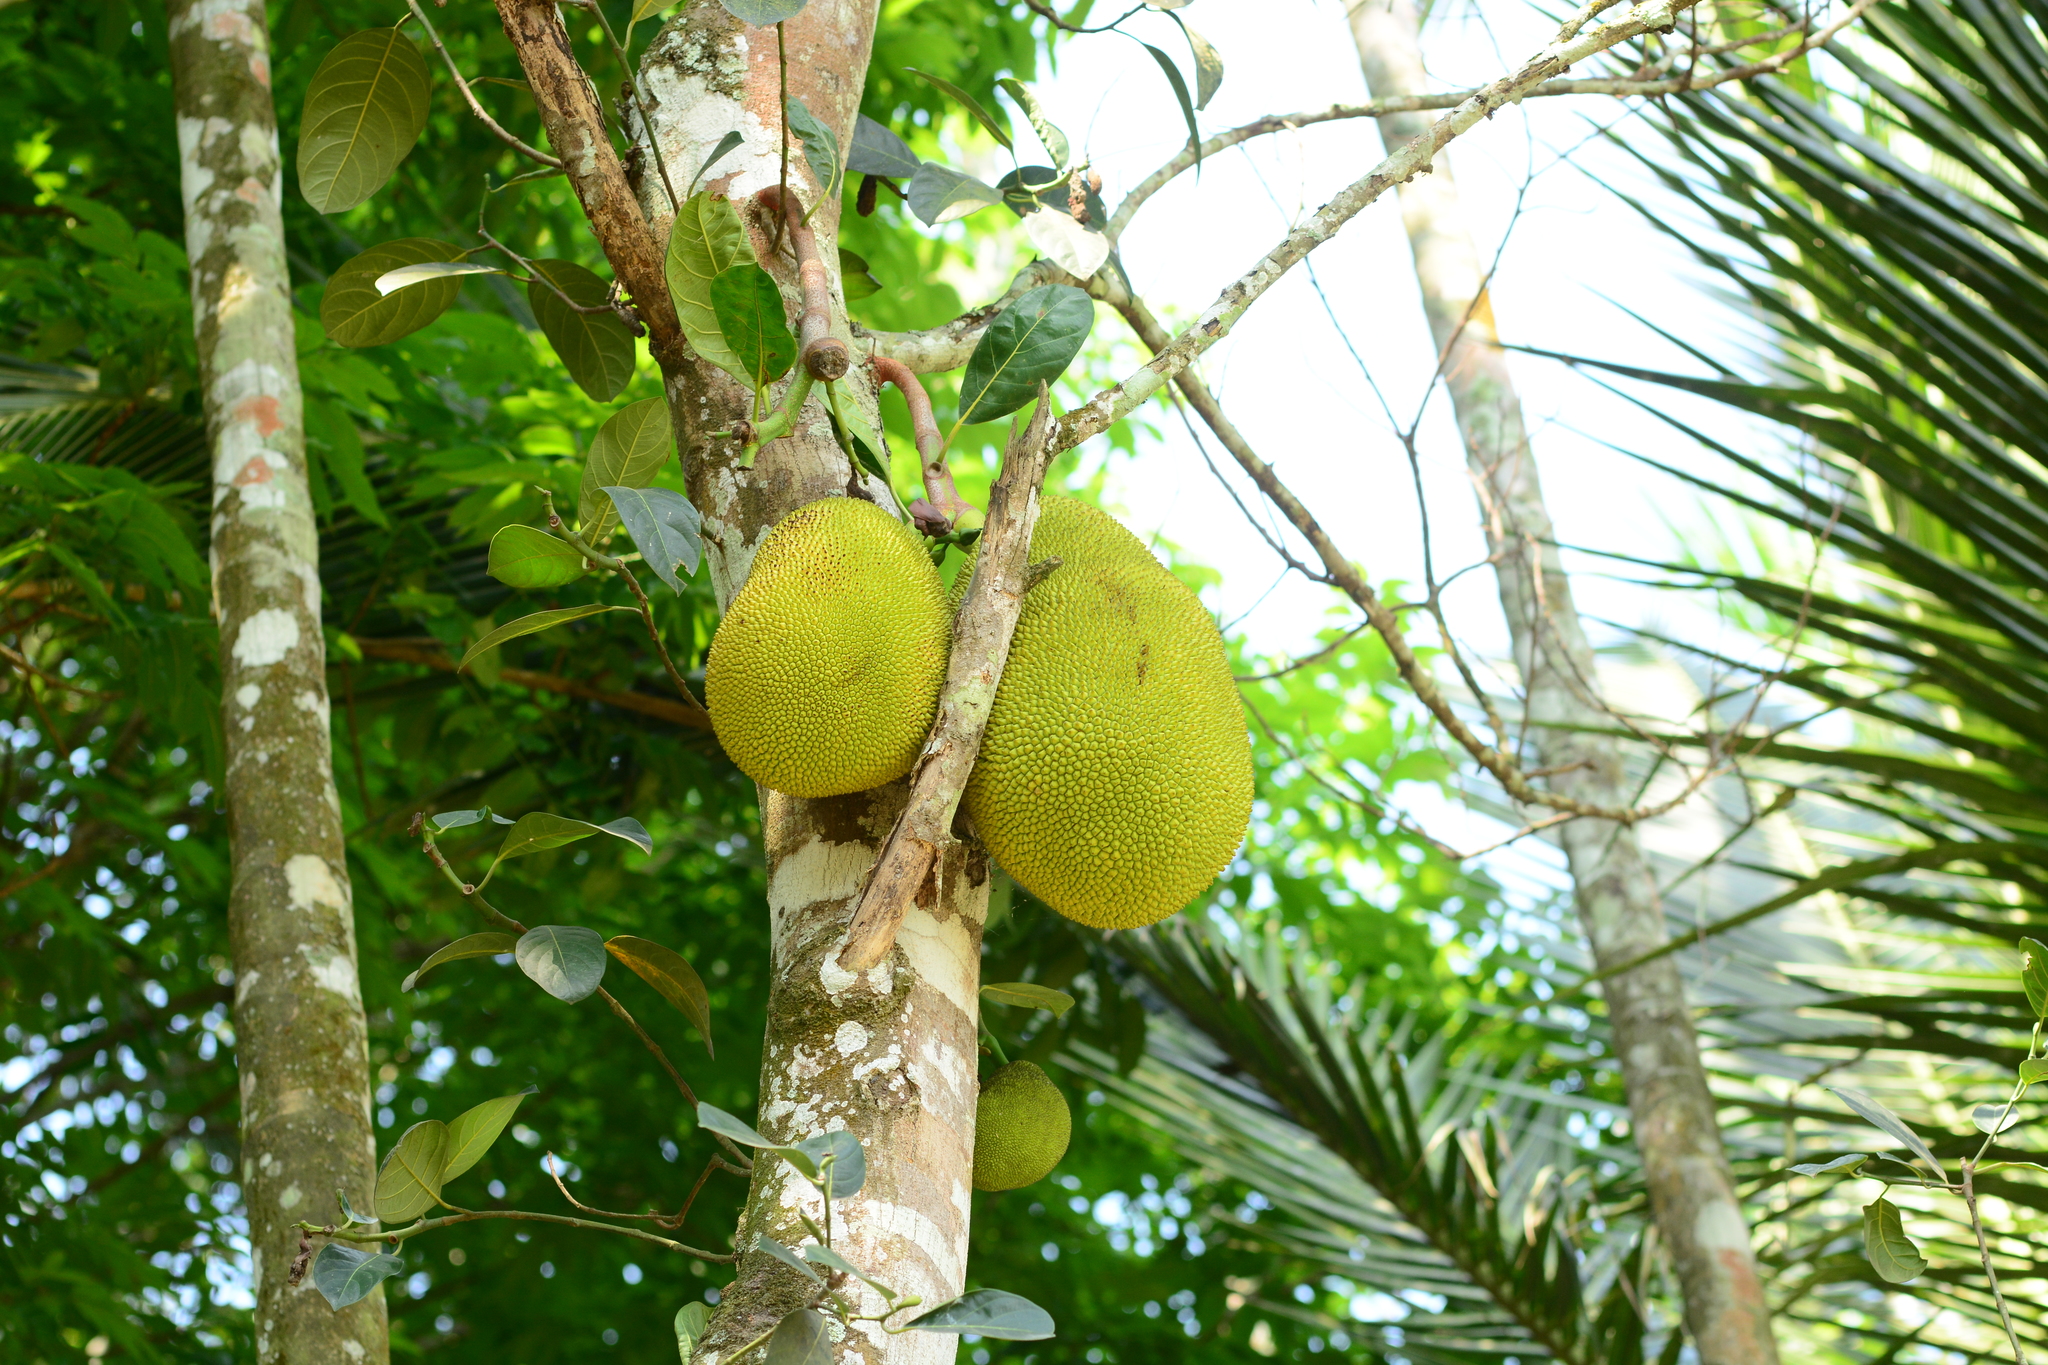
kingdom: Plantae
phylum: Tracheophyta
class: Magnoliopsida
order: Rosales
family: Moraceae
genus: Artocarpus
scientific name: Artocarpus heterophyllus
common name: Jackfruit
